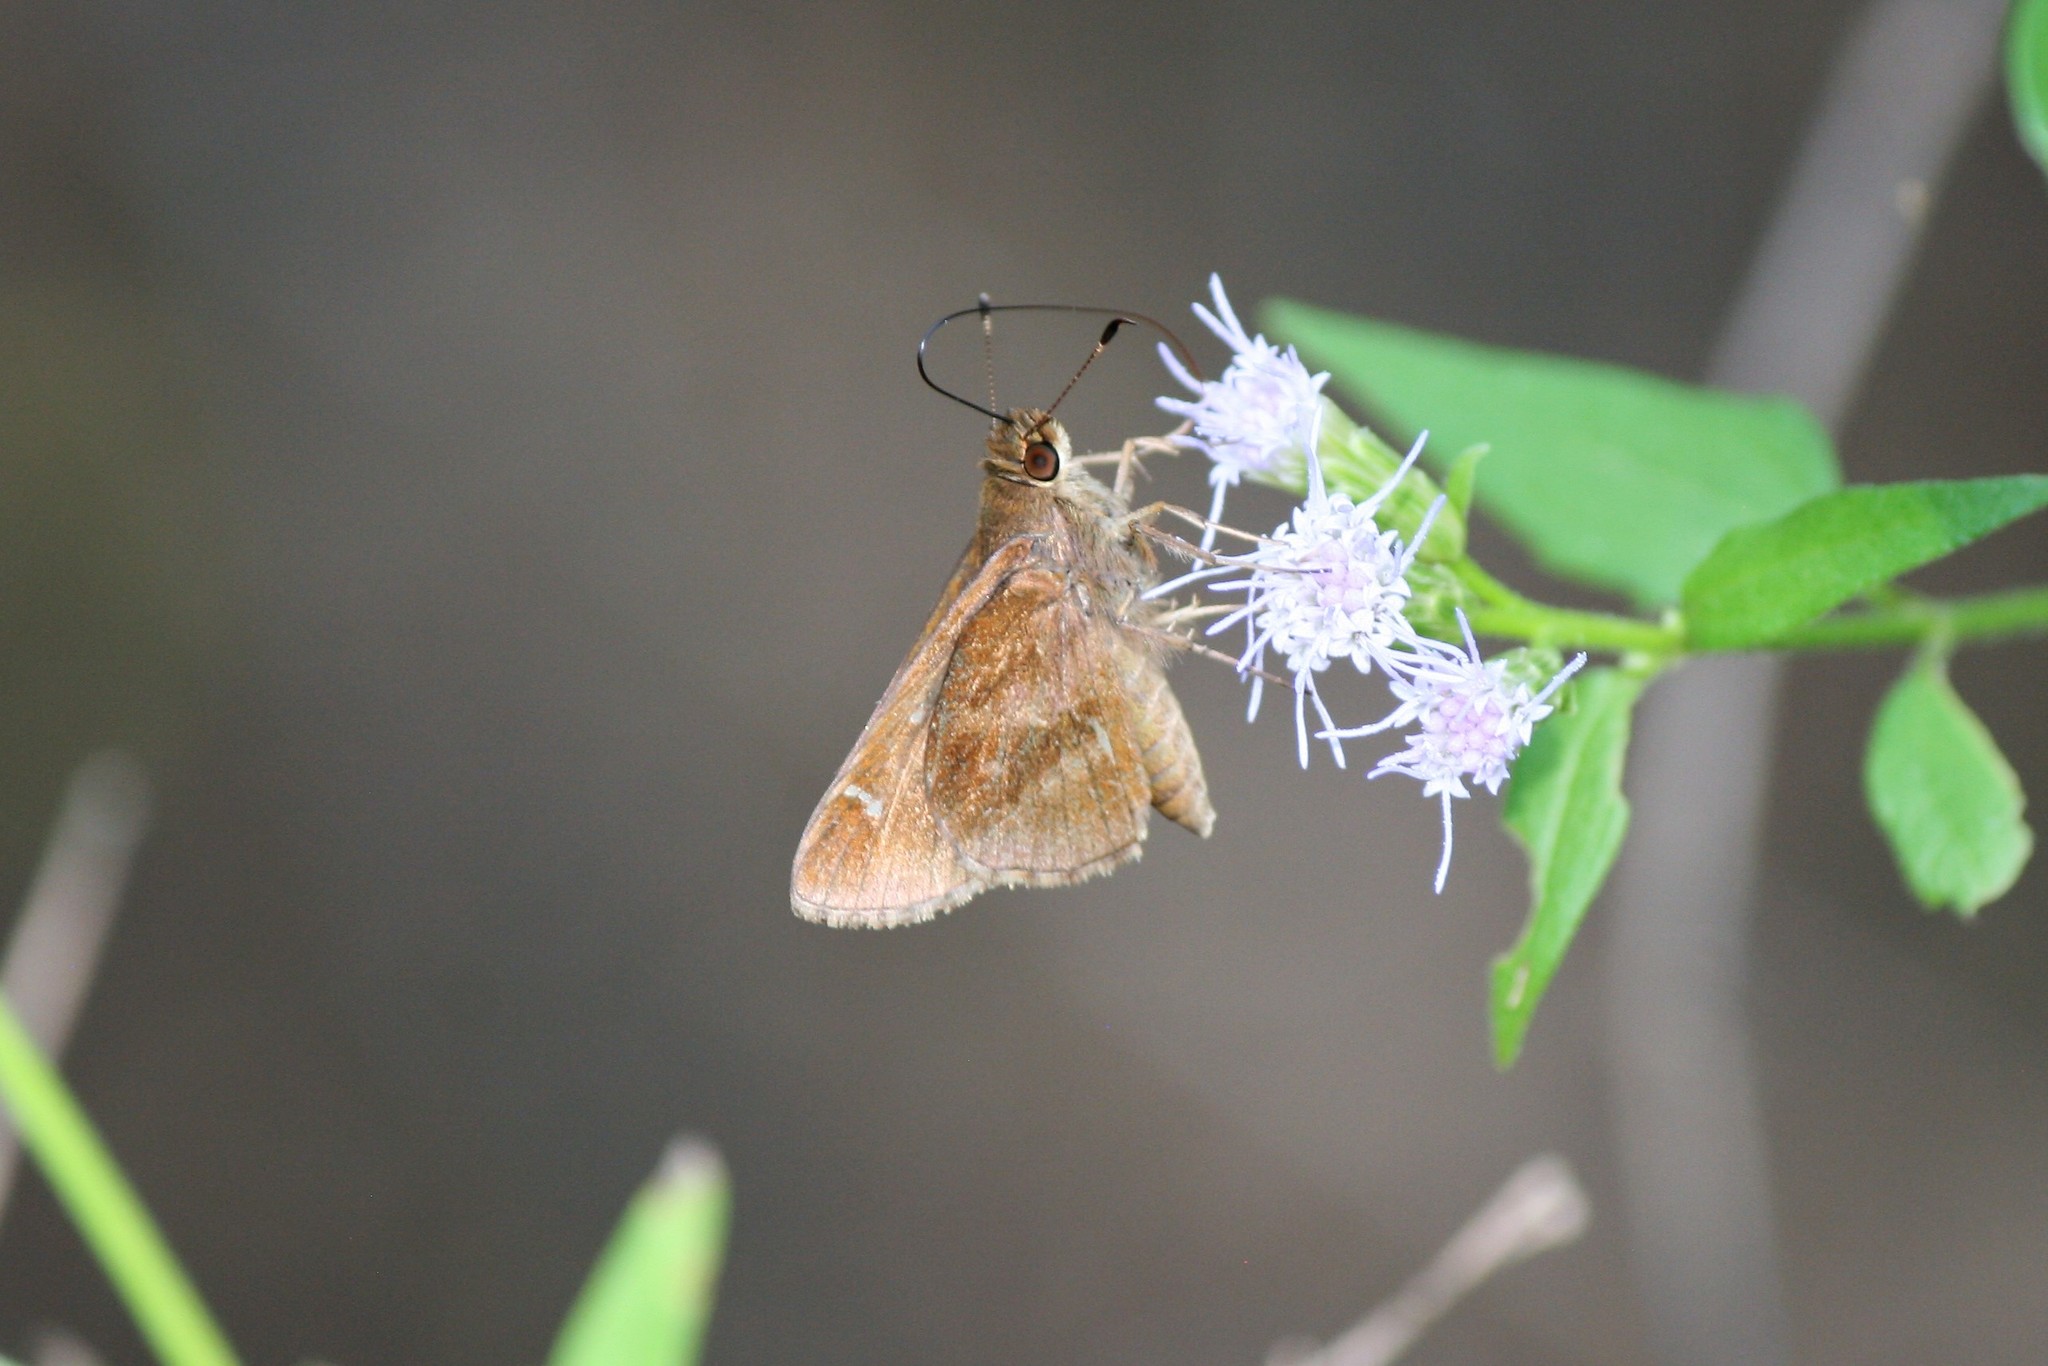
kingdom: Animalia
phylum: Arthropoda
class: Insecta
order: Lepidoptera
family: Hesperiidae
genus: Lerema
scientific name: Lerema accius
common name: Clouded skipper
